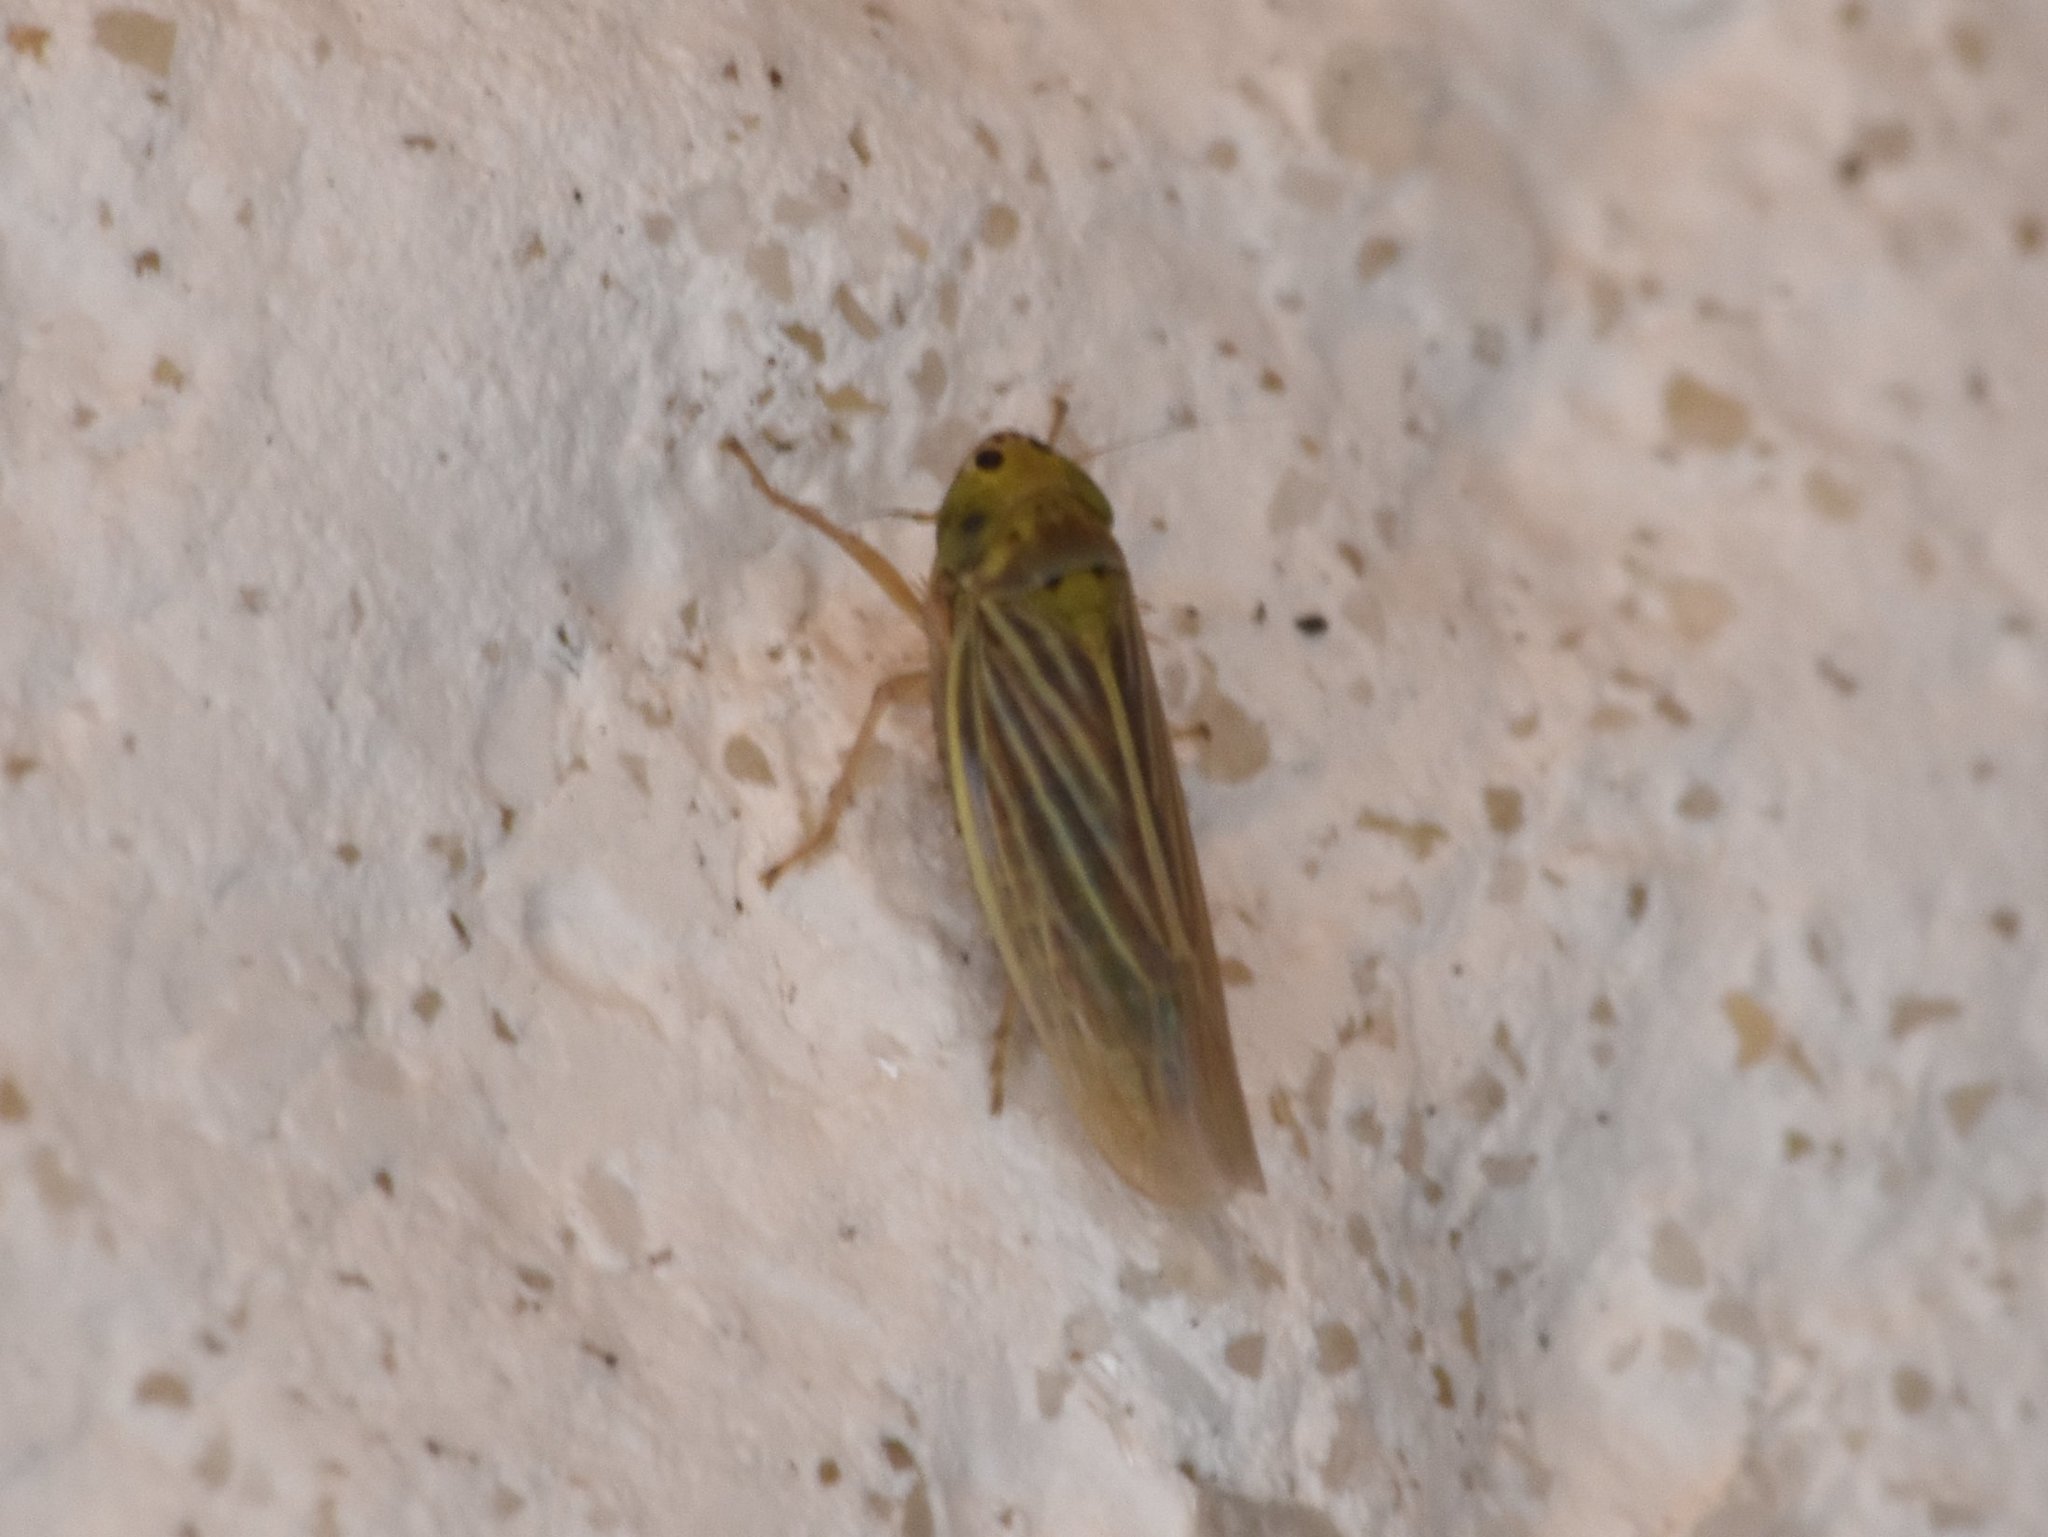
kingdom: Animalia
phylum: Arthropoda
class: Insecta
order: Hemiptera
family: Cicadellidae
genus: Graminella
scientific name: Graminella cognita
